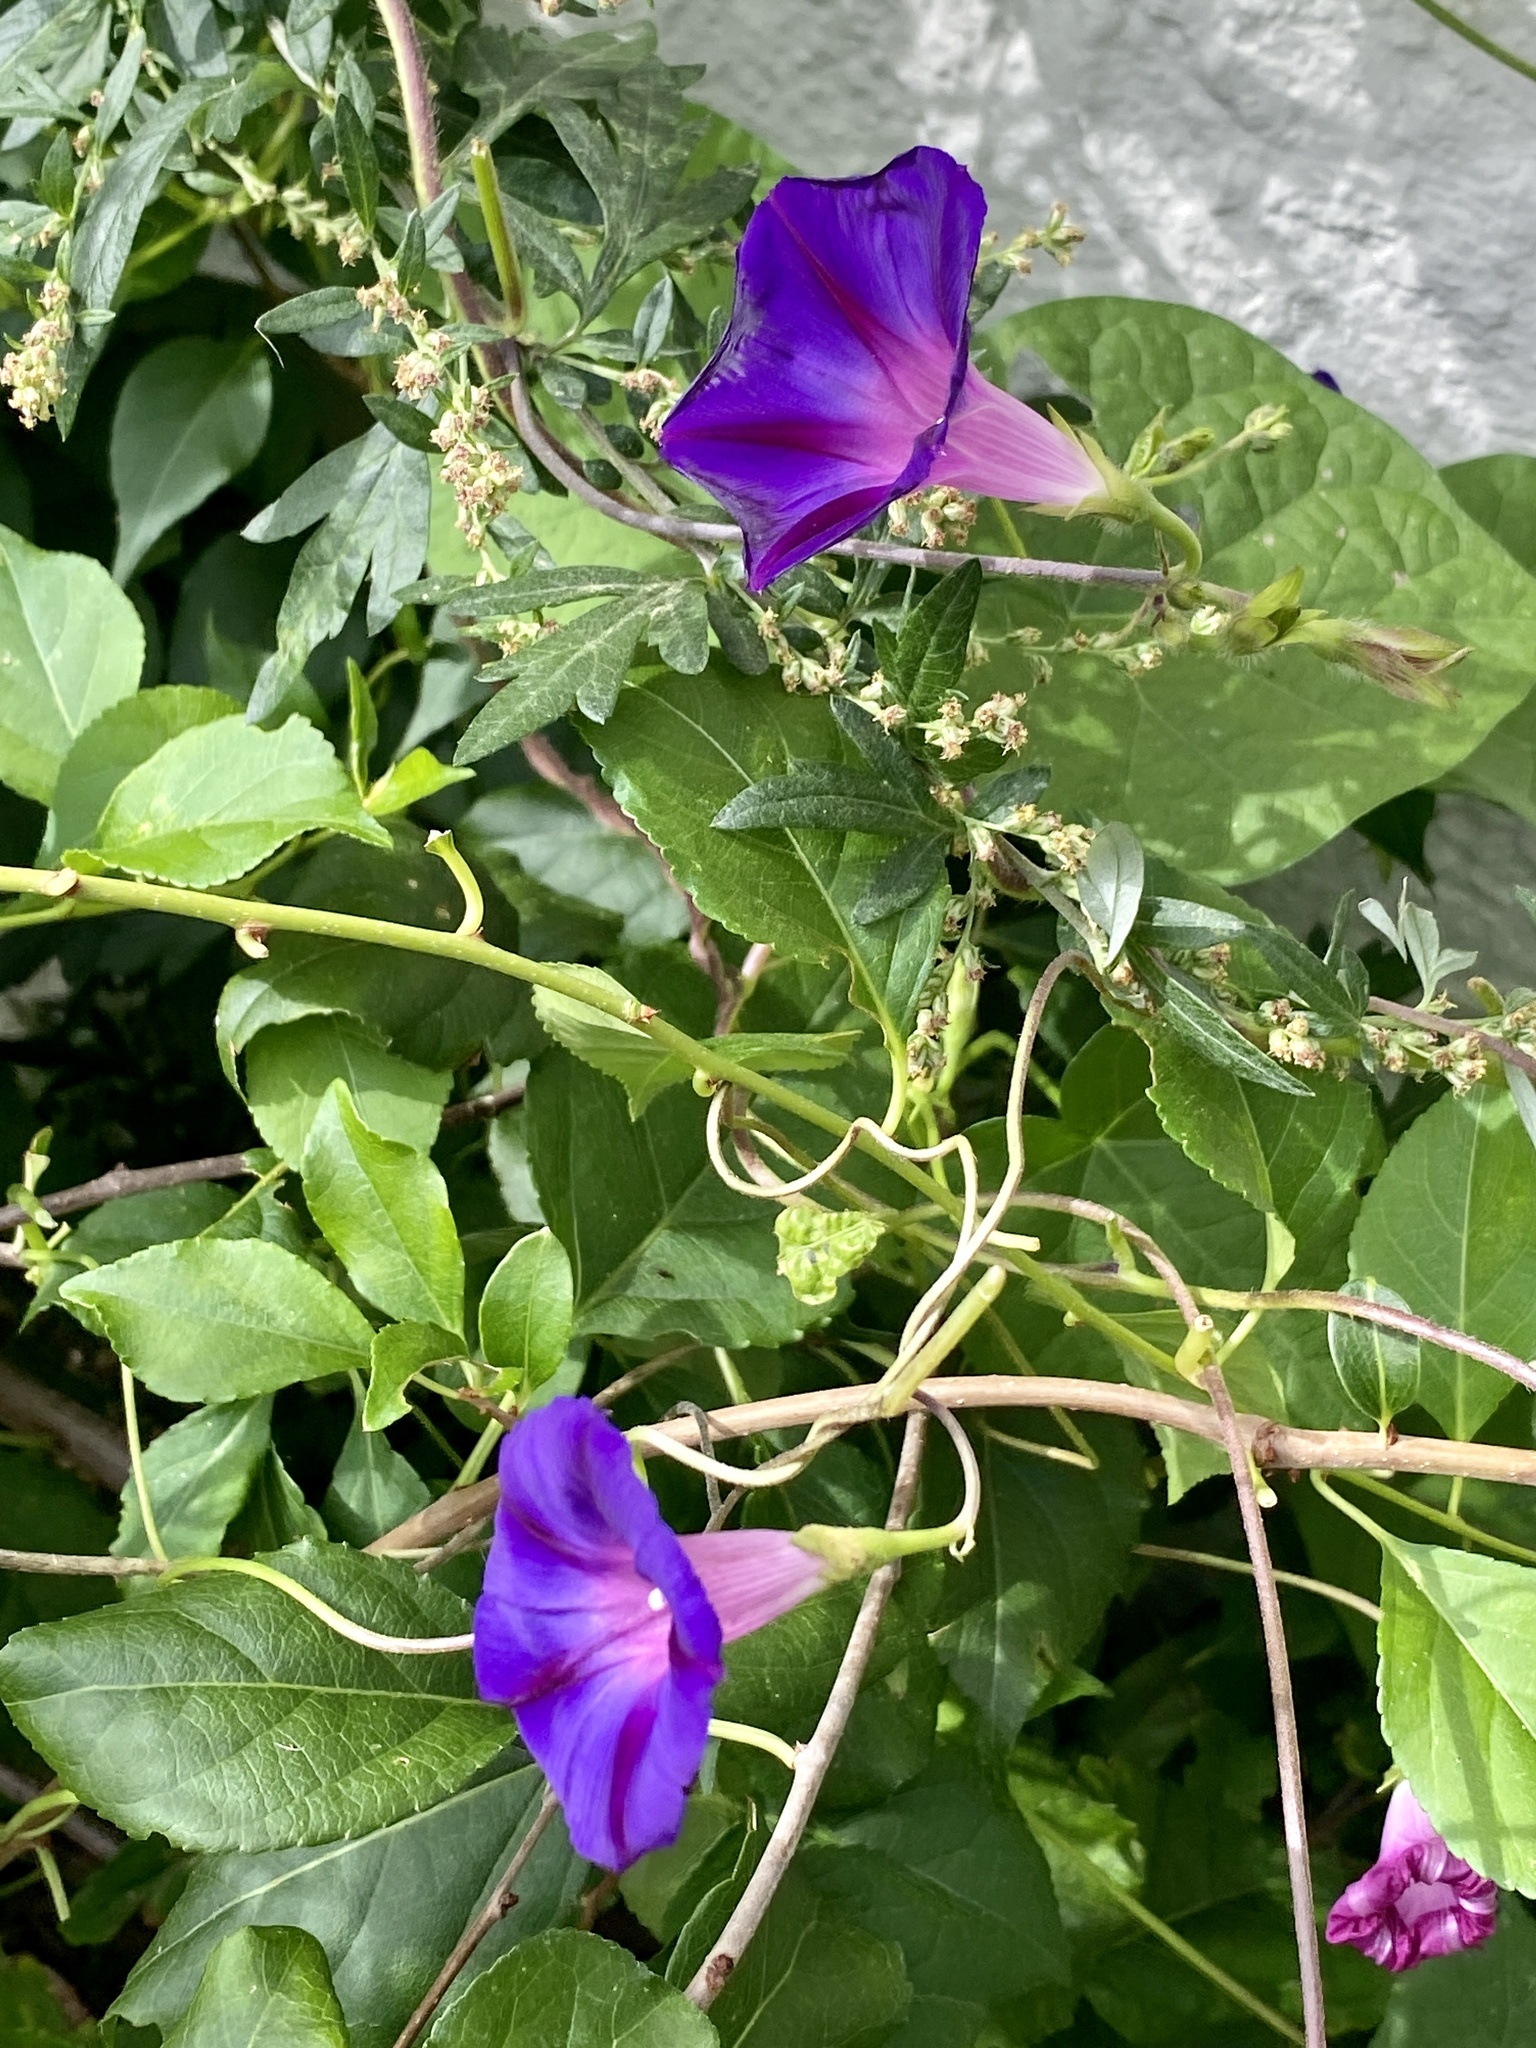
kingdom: Plantae
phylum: Tracheophyta
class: Magnoliopsida
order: Solanales
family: Convolvulaceae
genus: Ipomoea
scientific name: Ipomoea purpurea
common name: Common morning-glory
